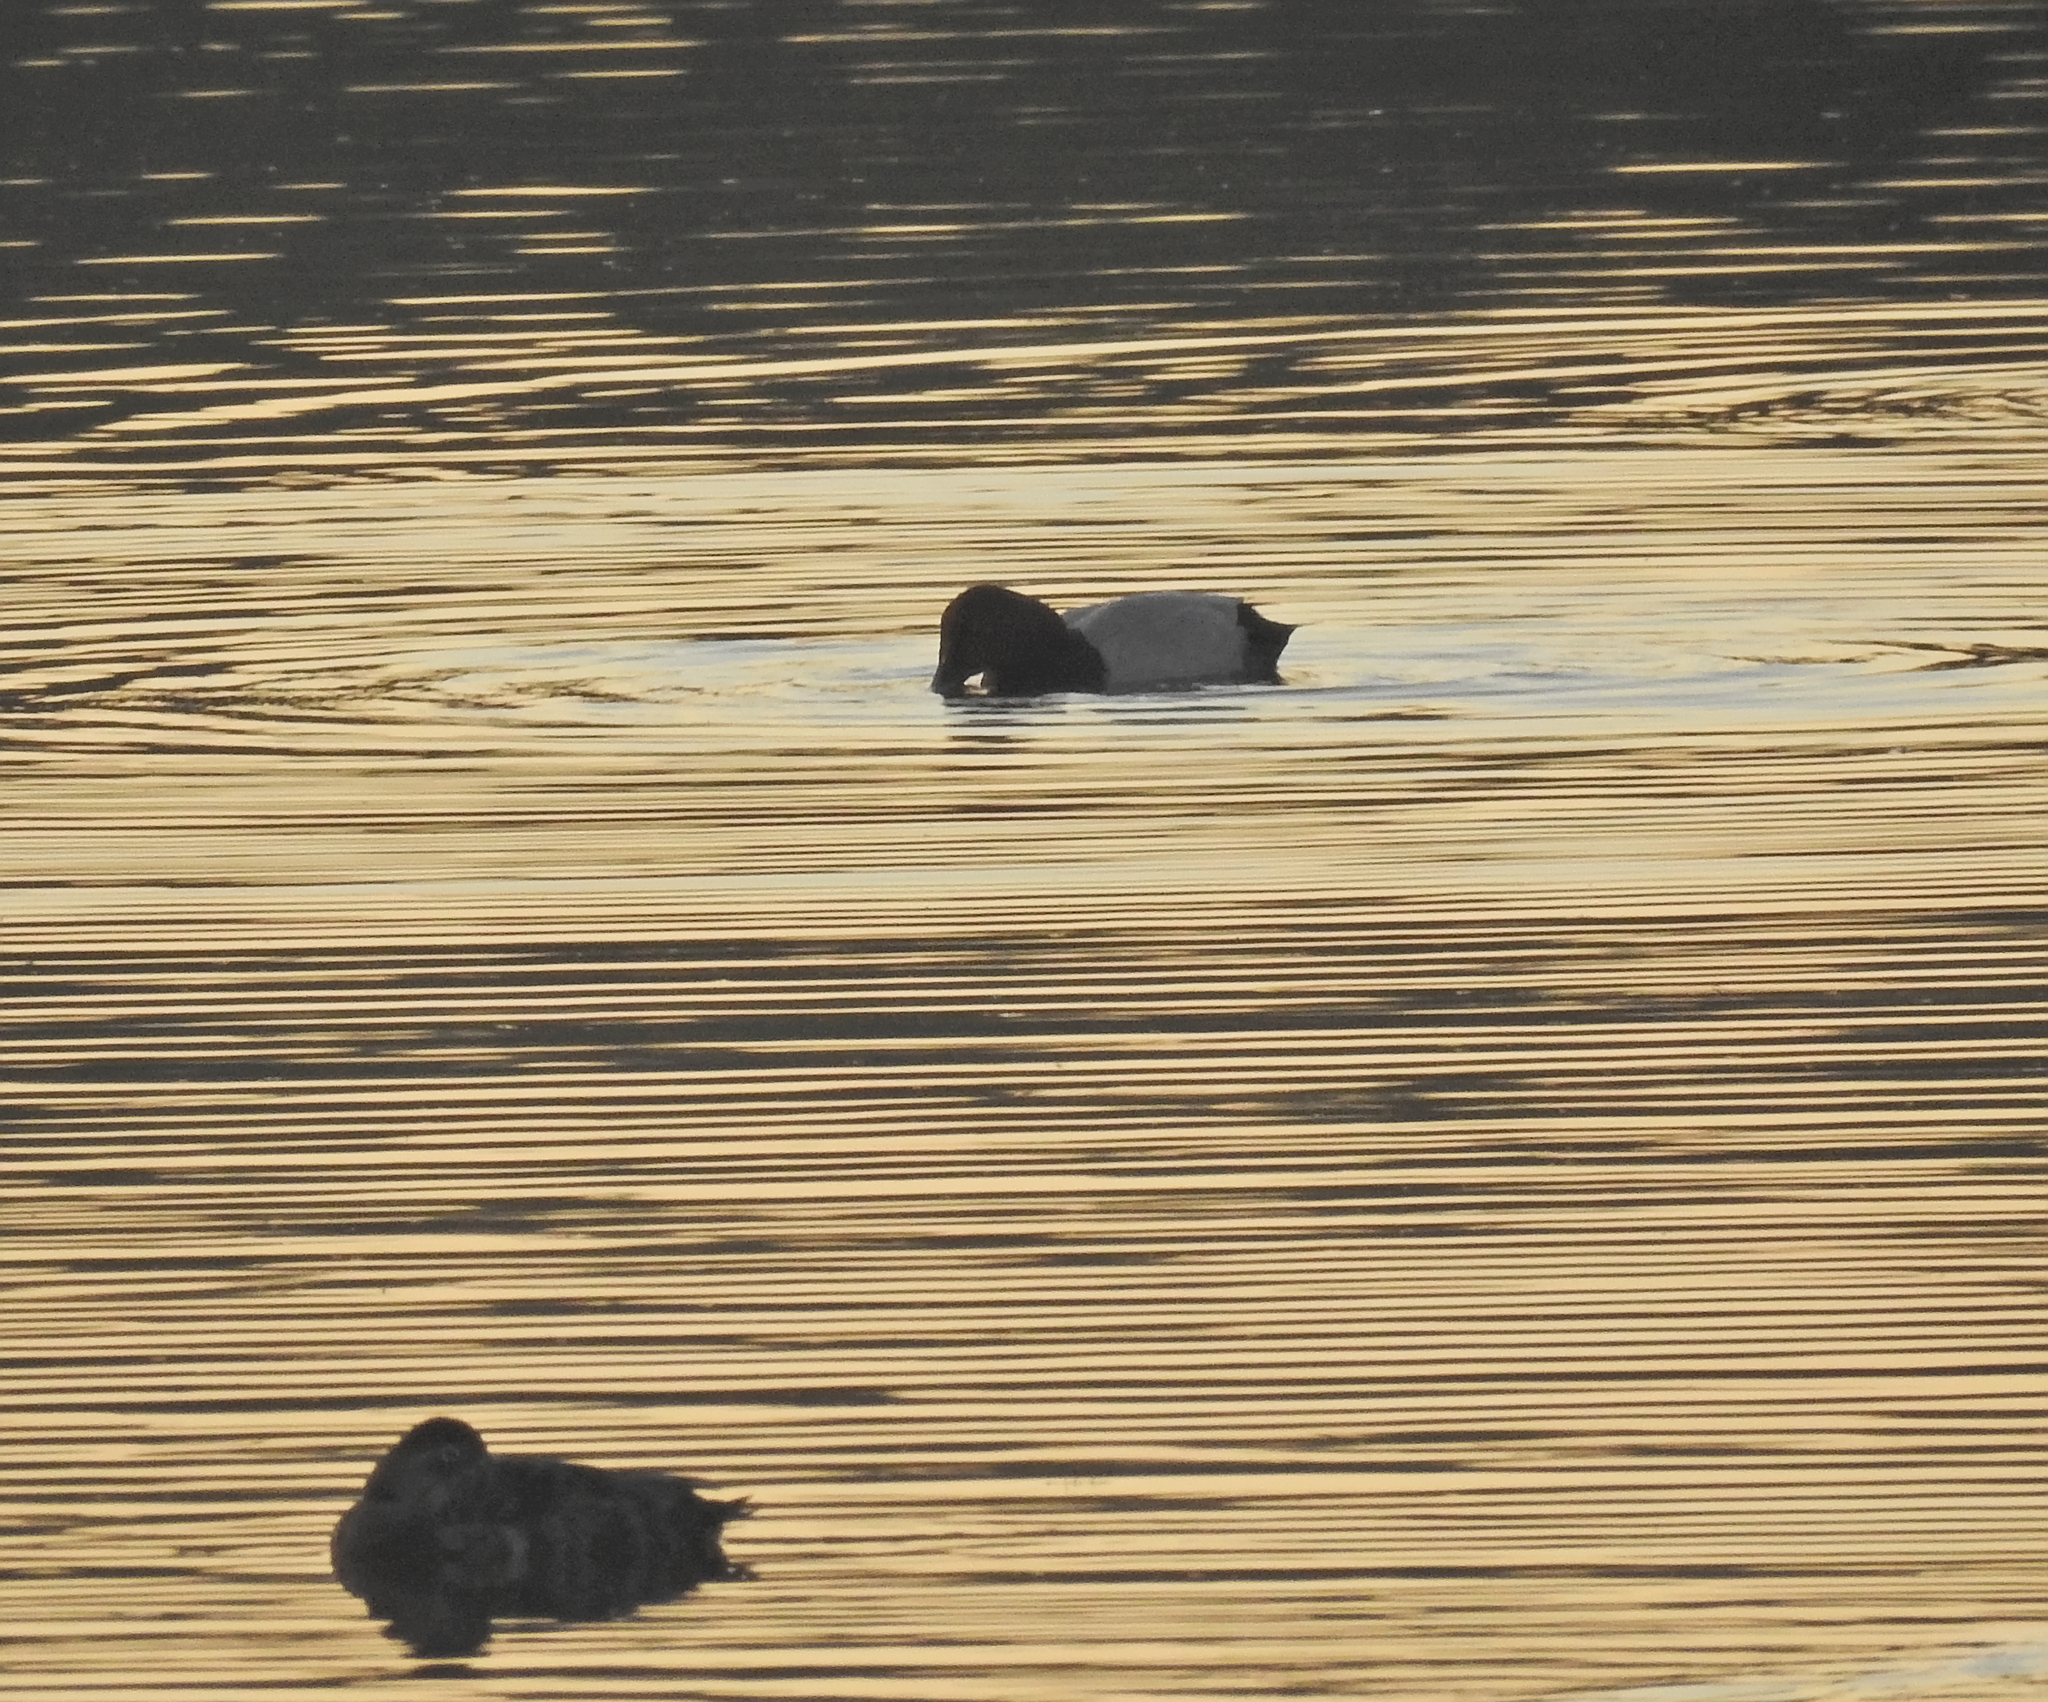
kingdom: Animalia
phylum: Chordata
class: Aves
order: Anseriformes
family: Anatidae
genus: Aythya
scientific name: Aythya ferina
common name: Common pochard
